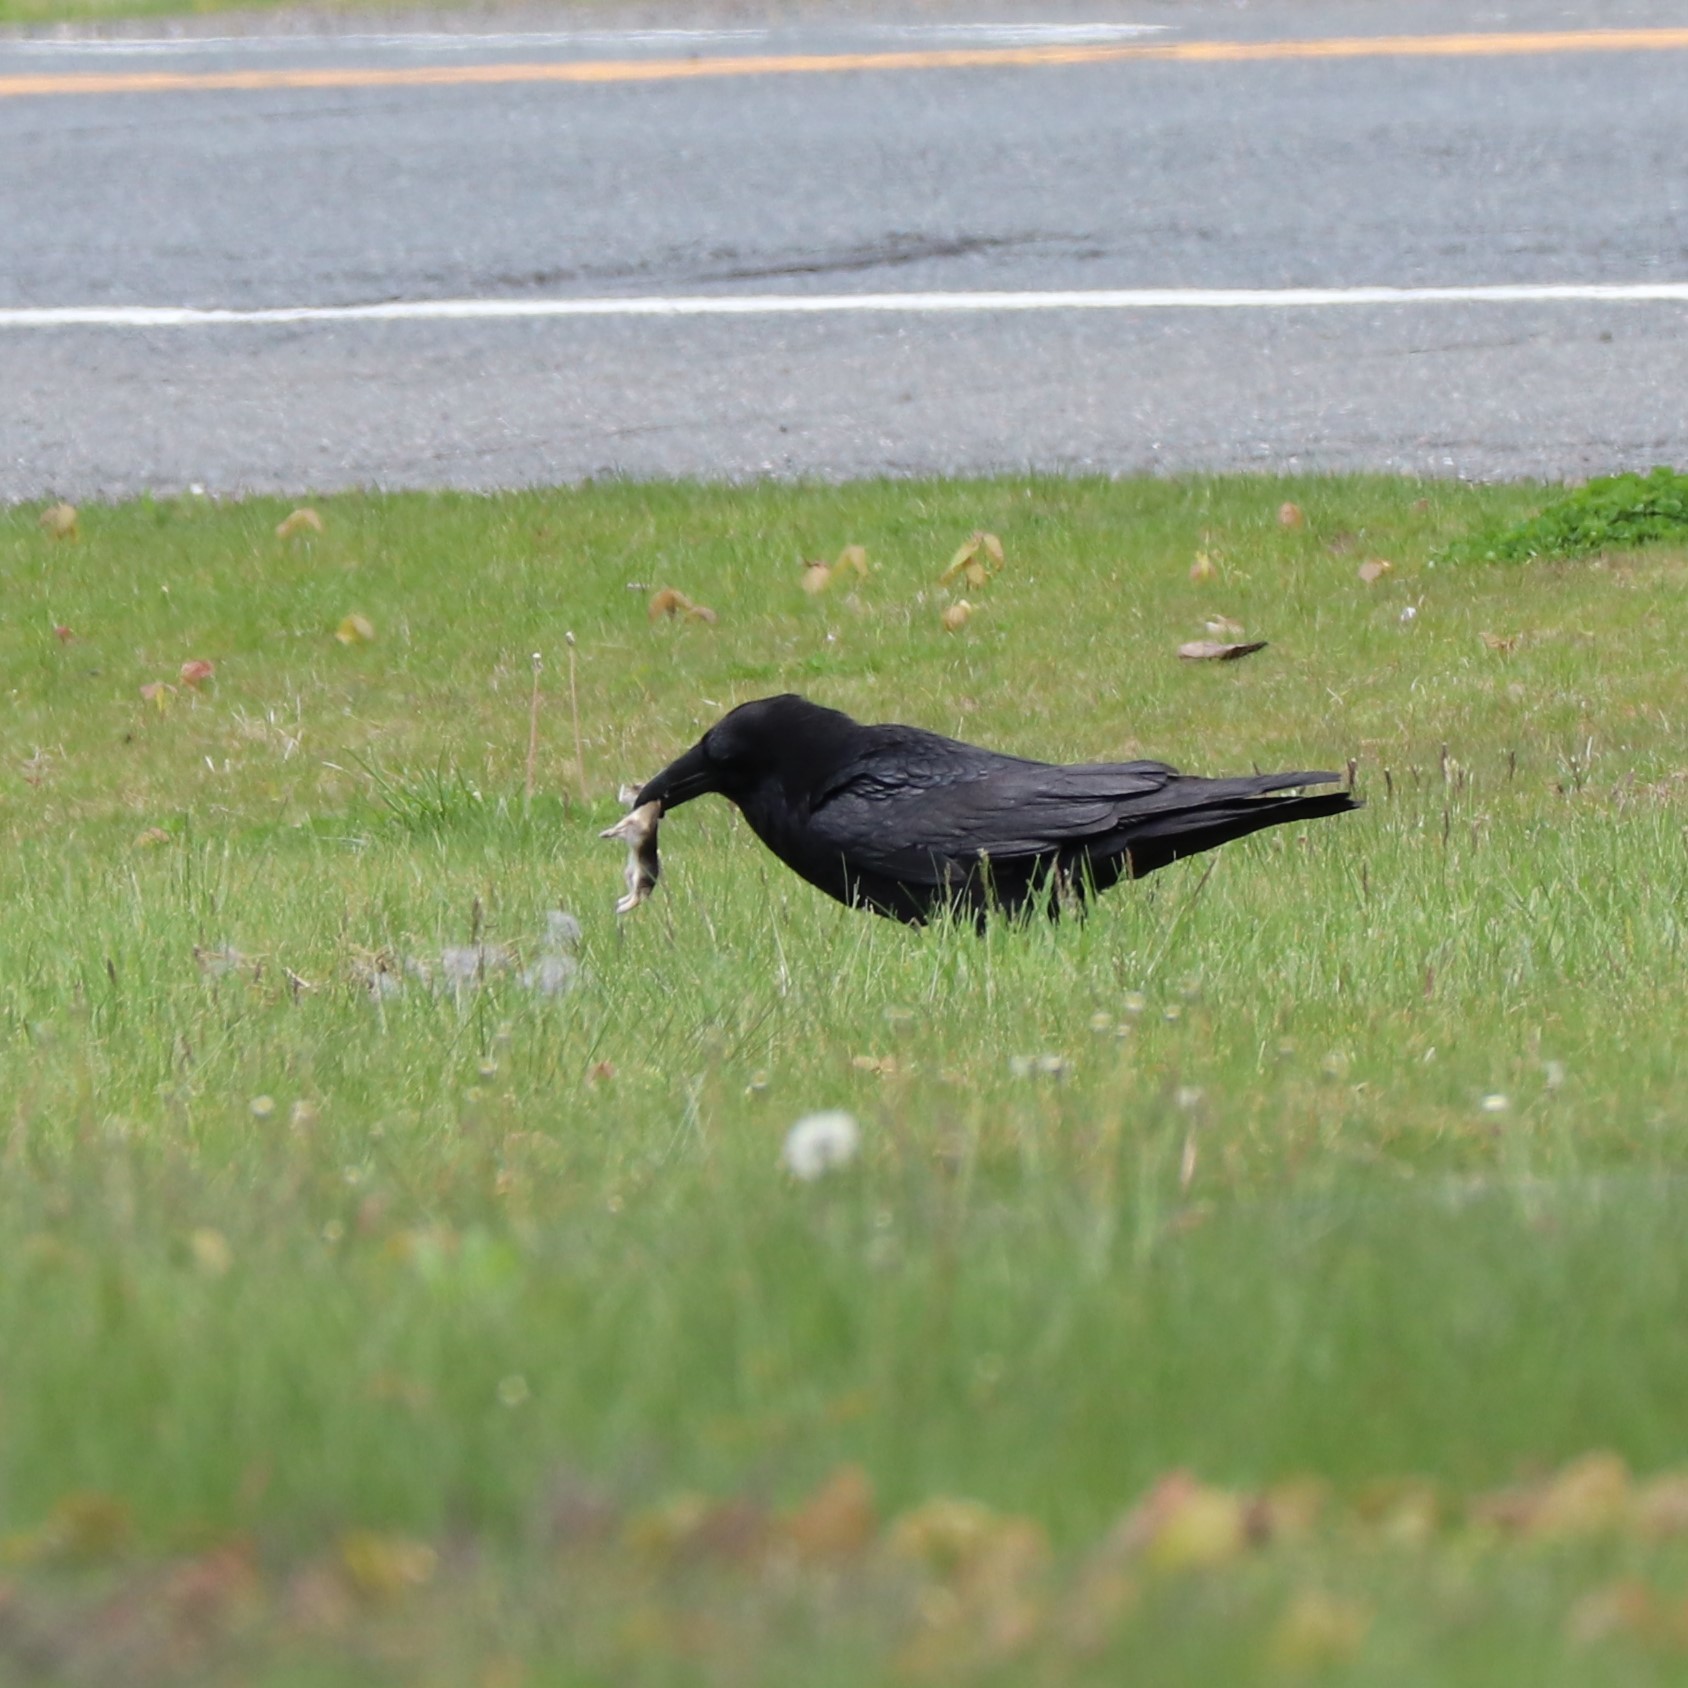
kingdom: Animalia
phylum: Chordata
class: Mammalia
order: Lagomorpha
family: Leporidae
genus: Sylvilagus
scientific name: Sylvilagus floridanus
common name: Eastern cottontail
